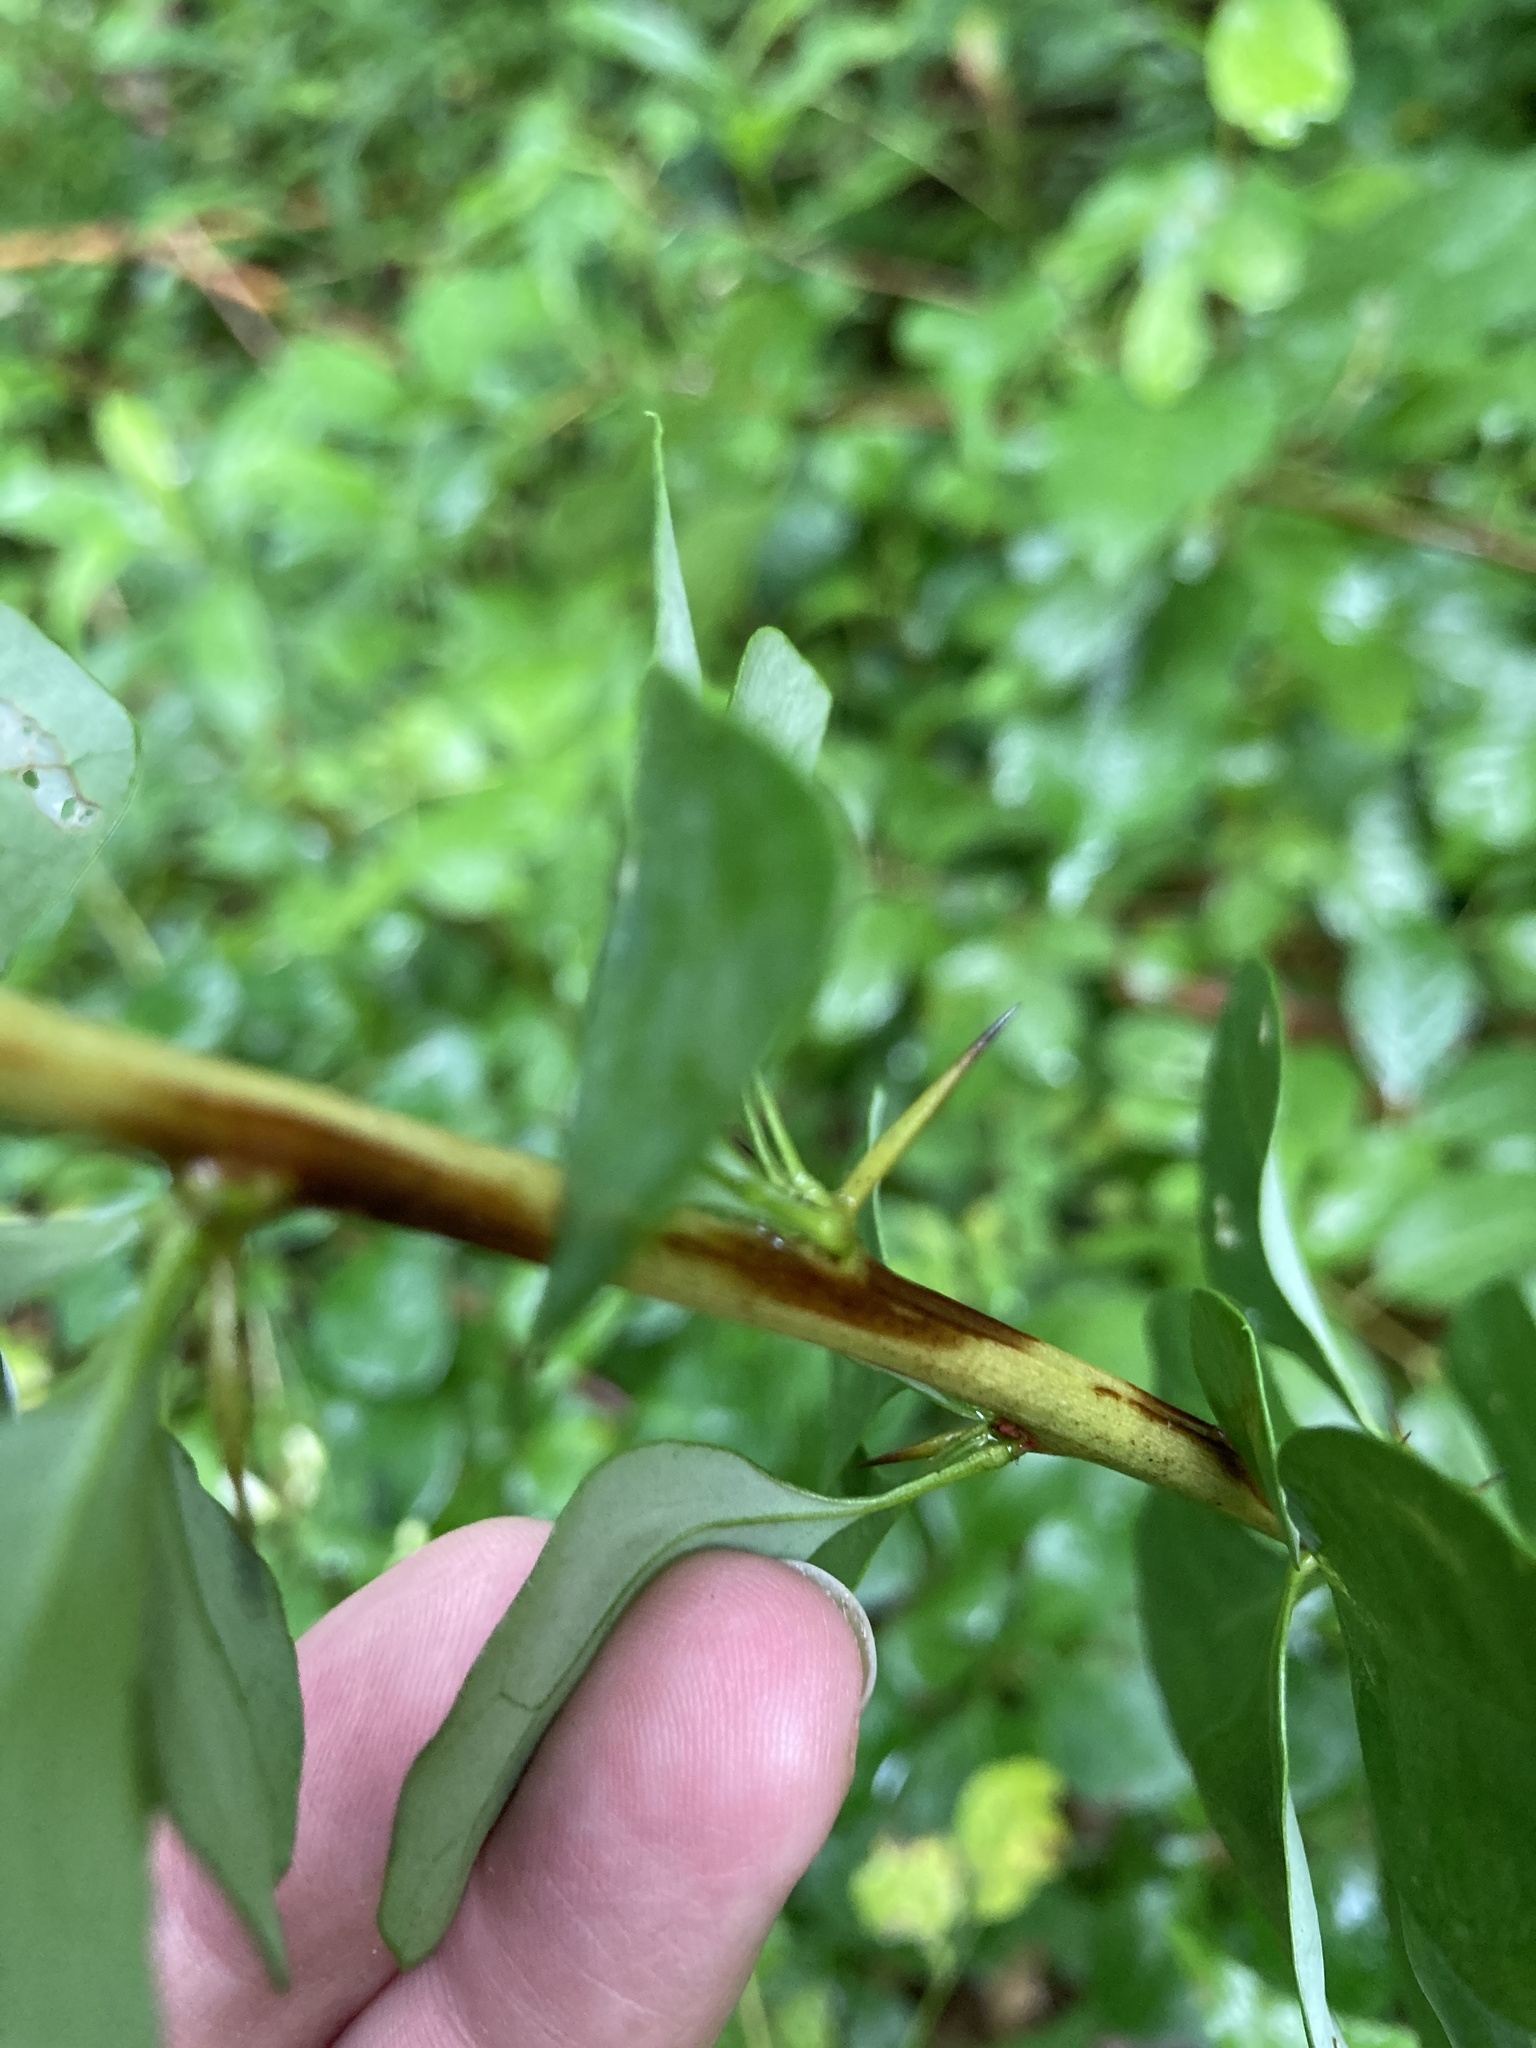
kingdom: Plantae
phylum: Tracheophyta
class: Magnoliopsida
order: Ranunculales
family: Berberidaceae
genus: Berberis
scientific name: Berberis thunbergii
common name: Japanese barberry
